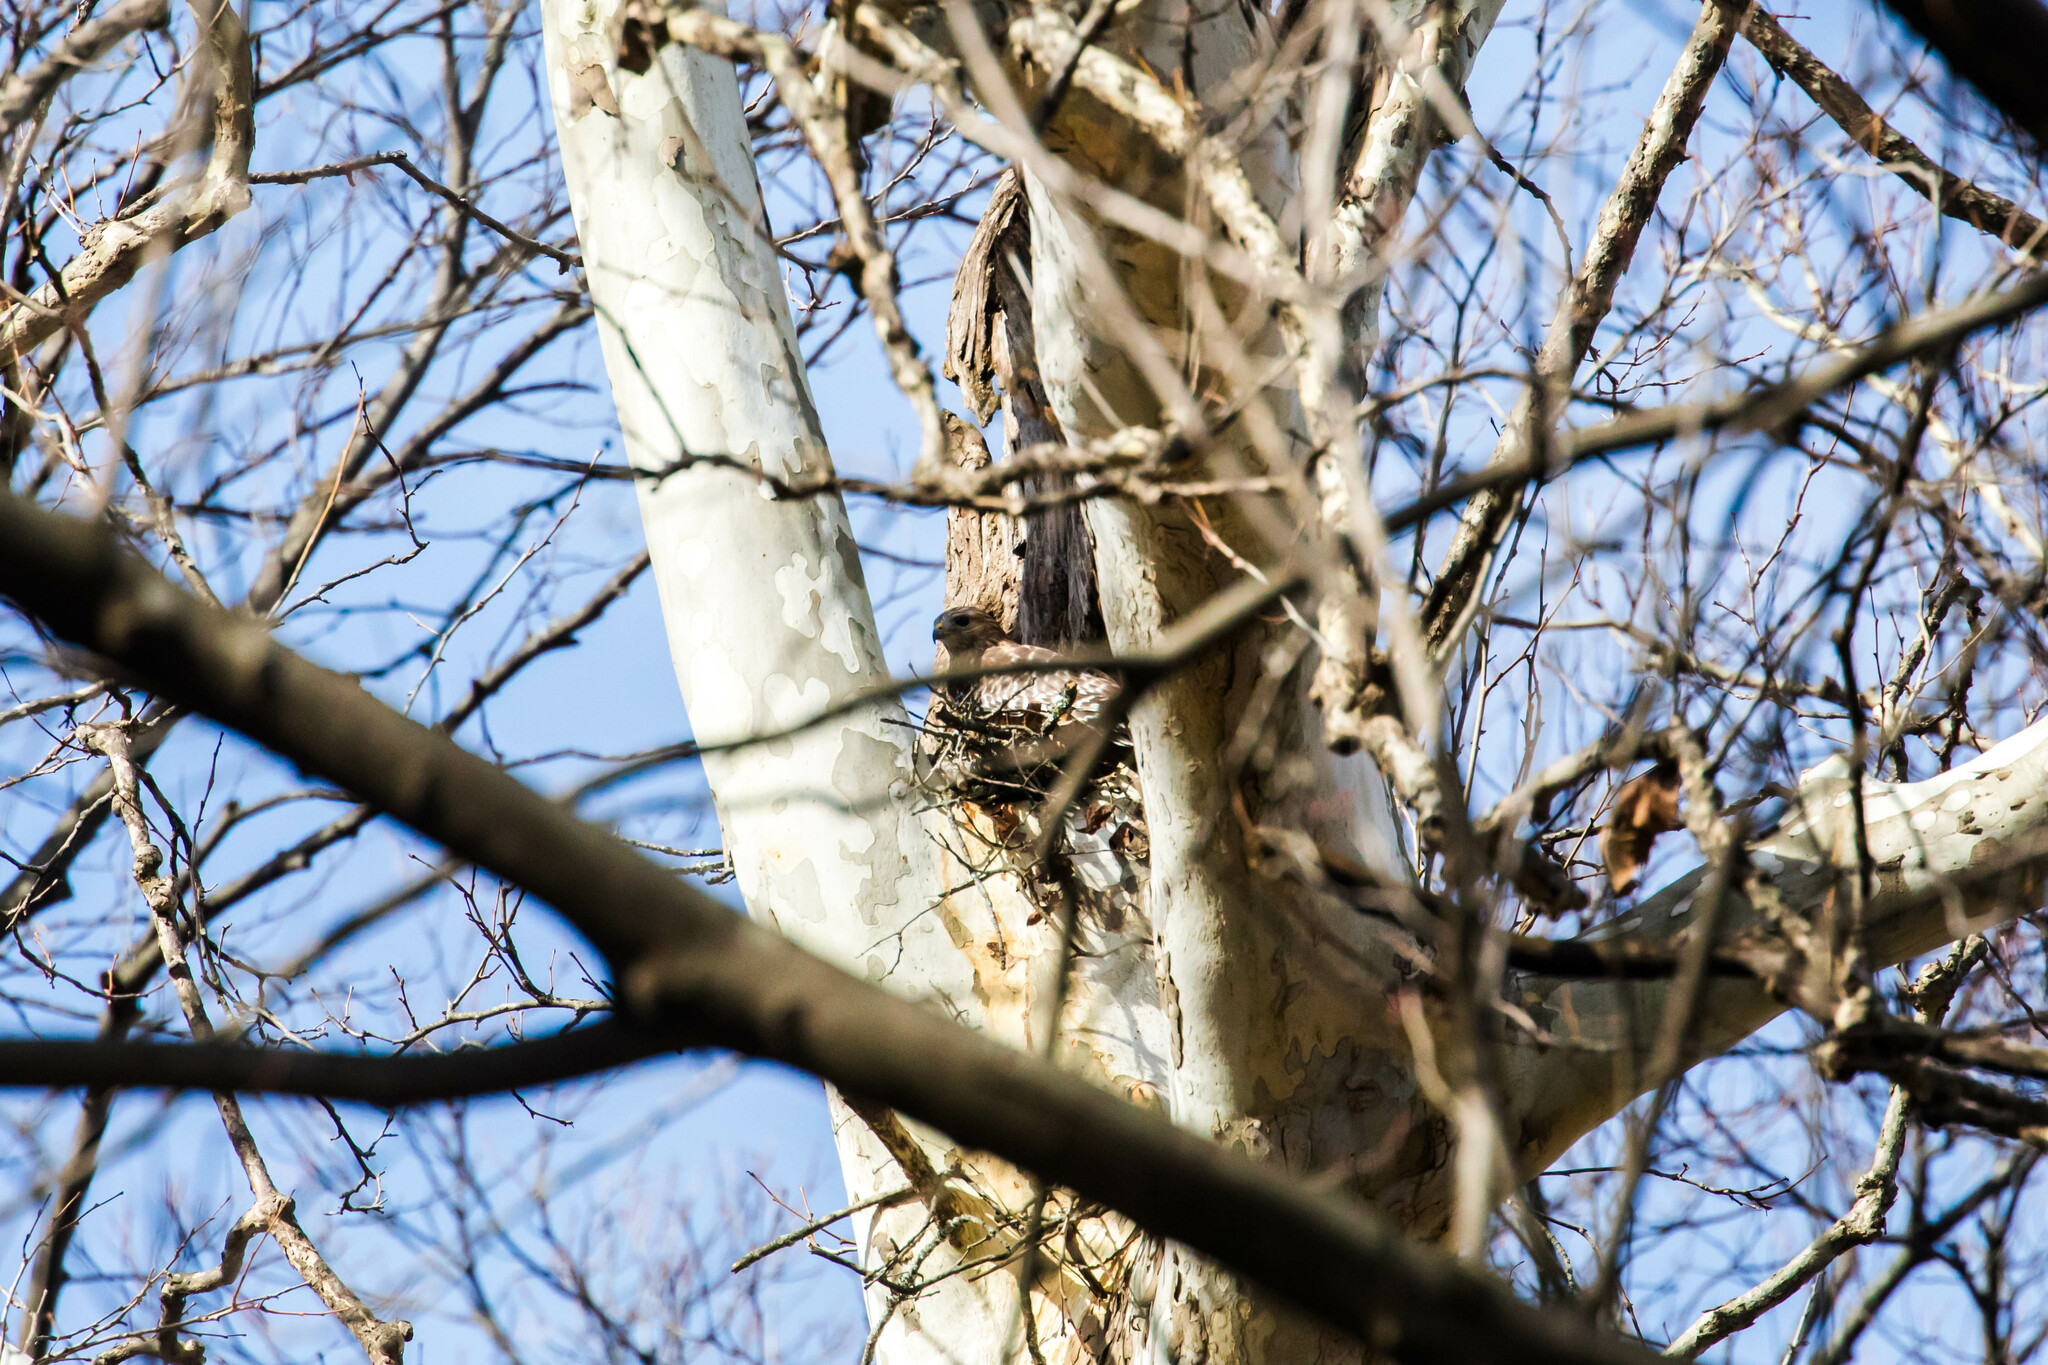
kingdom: Animalia
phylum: Chordata
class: Aves
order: Accipitriformes
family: Accipitridae
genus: Buteo
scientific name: Buteo lineatus
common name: Red-shouldered hawk
